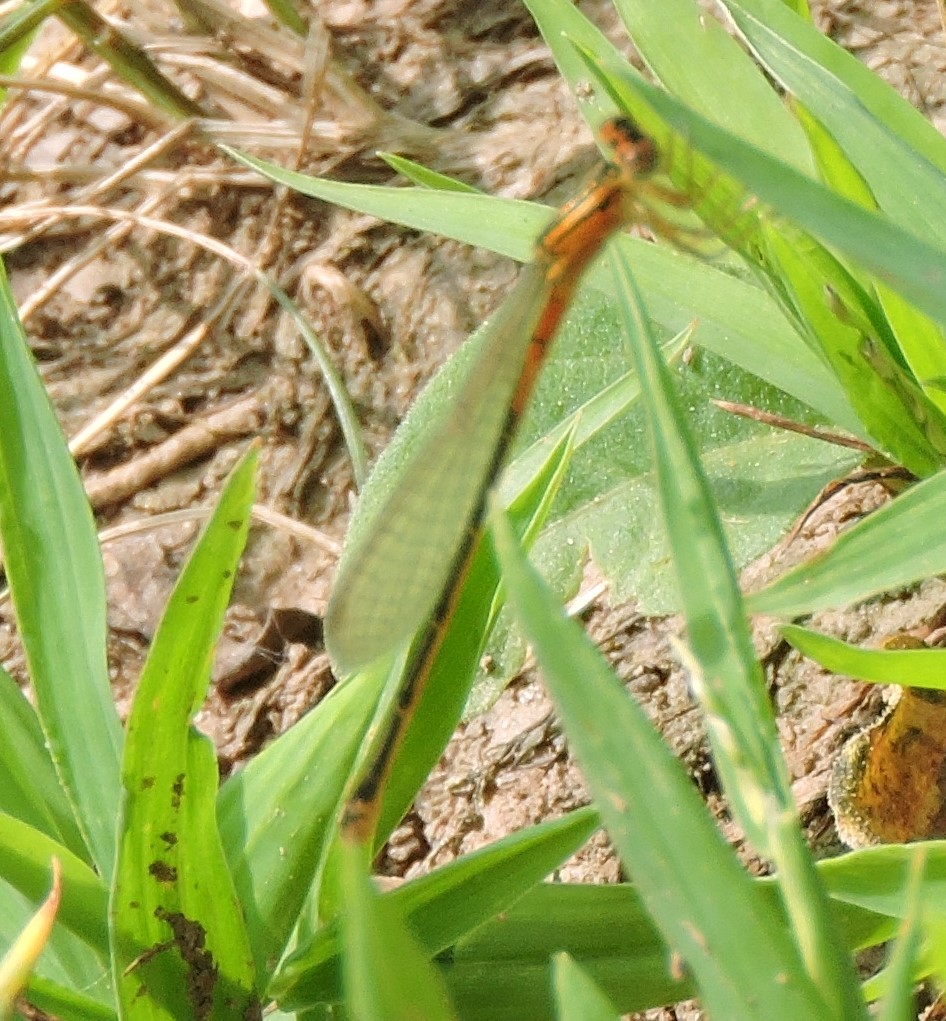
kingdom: Animalia
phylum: Arthropoda
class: Insecta
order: Odonata
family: Coenagrionidae
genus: Ischnura
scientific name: Ischnura verticalis
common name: Eastern forktail
